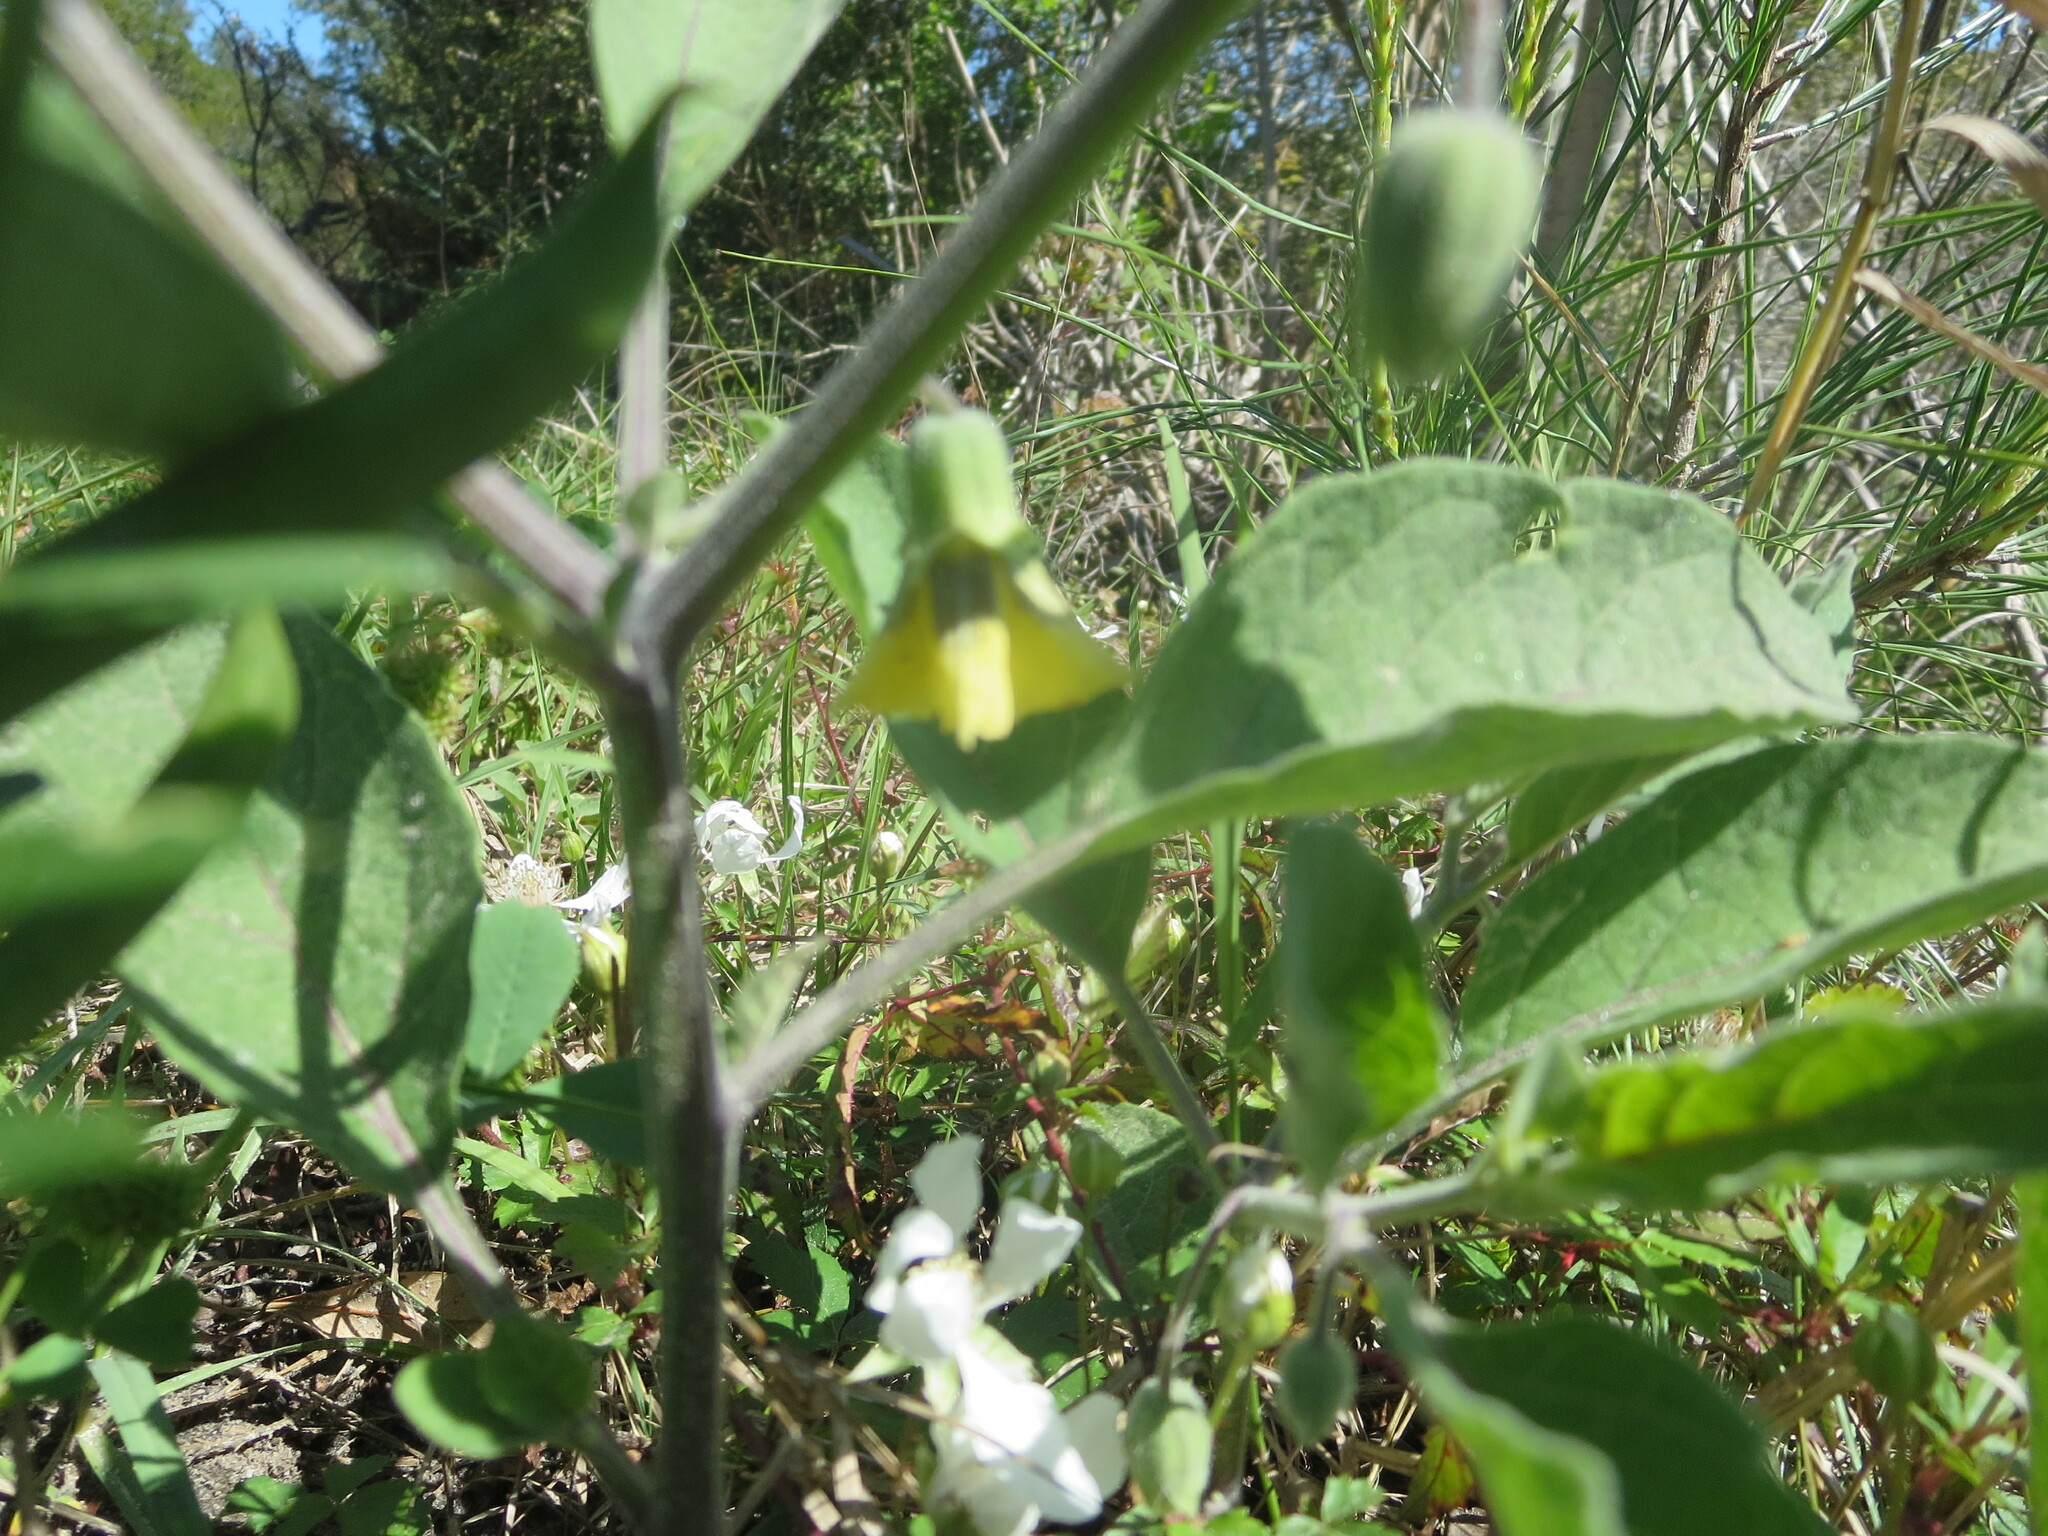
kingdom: Plantae
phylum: Tracheophyta
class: Magnoliopsida
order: Solanales
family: Solanaceae
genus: Physalis
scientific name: Physalis walteri
